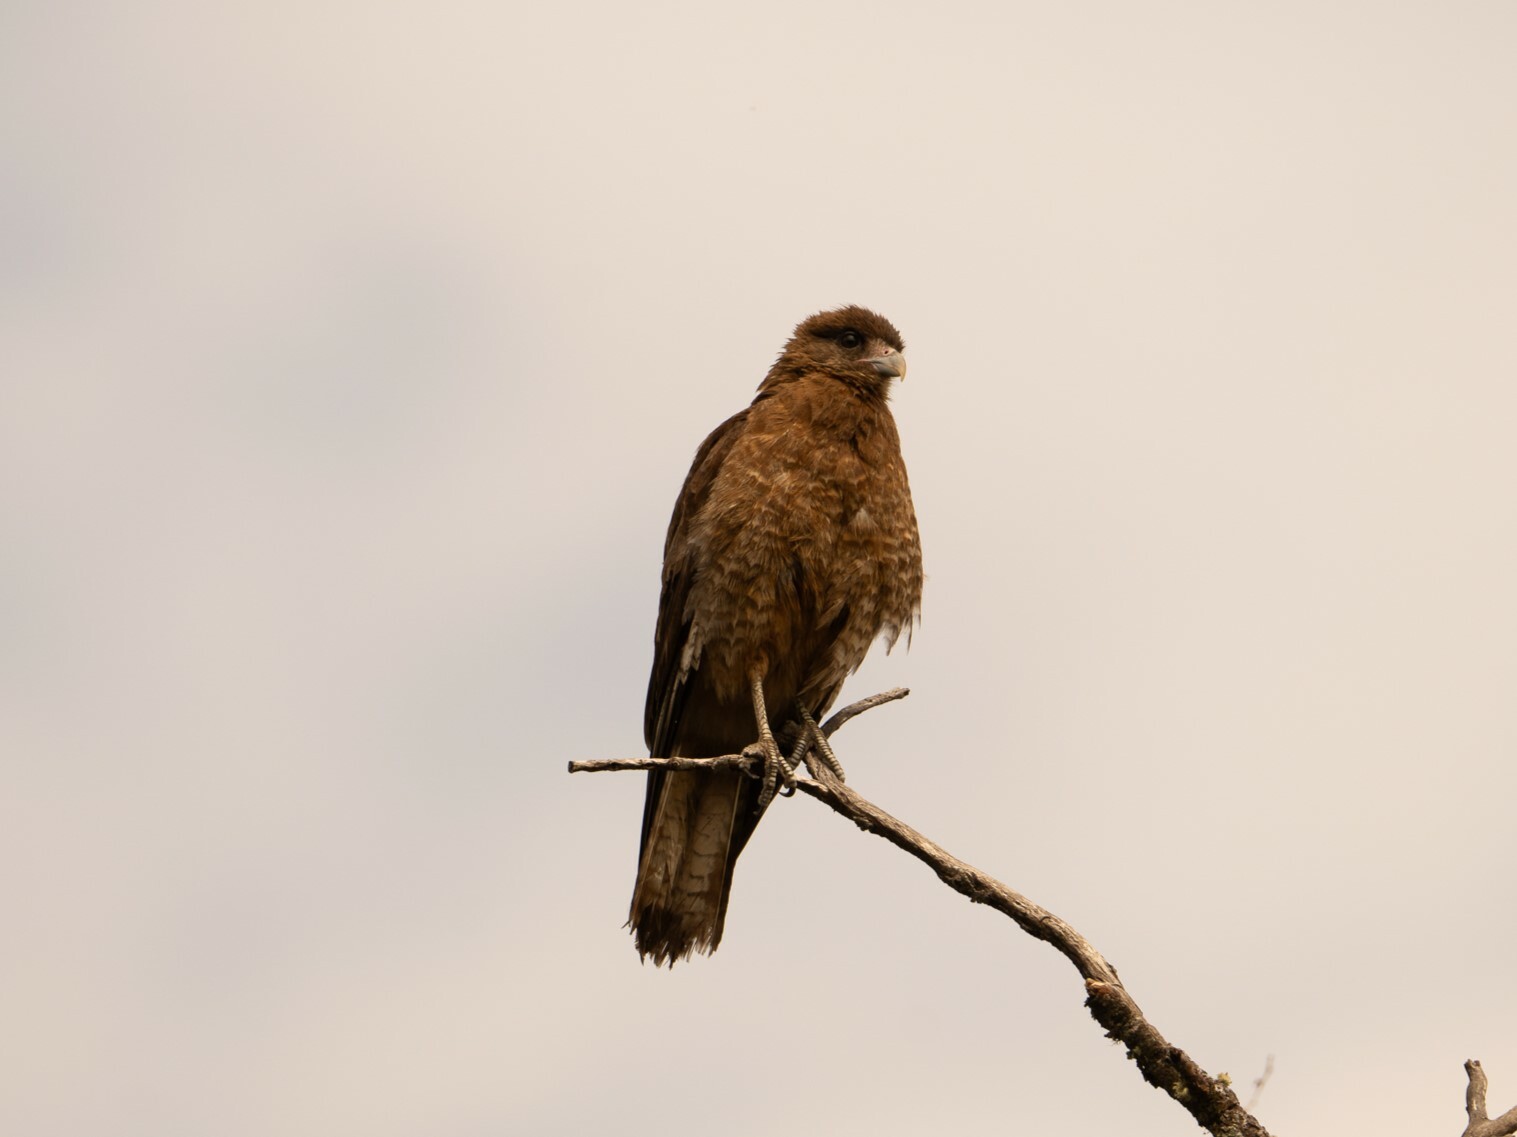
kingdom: Animalia
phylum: Chordata
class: Aves
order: Falconiformes
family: Falconidae
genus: Daptrius
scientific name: Daptrius
